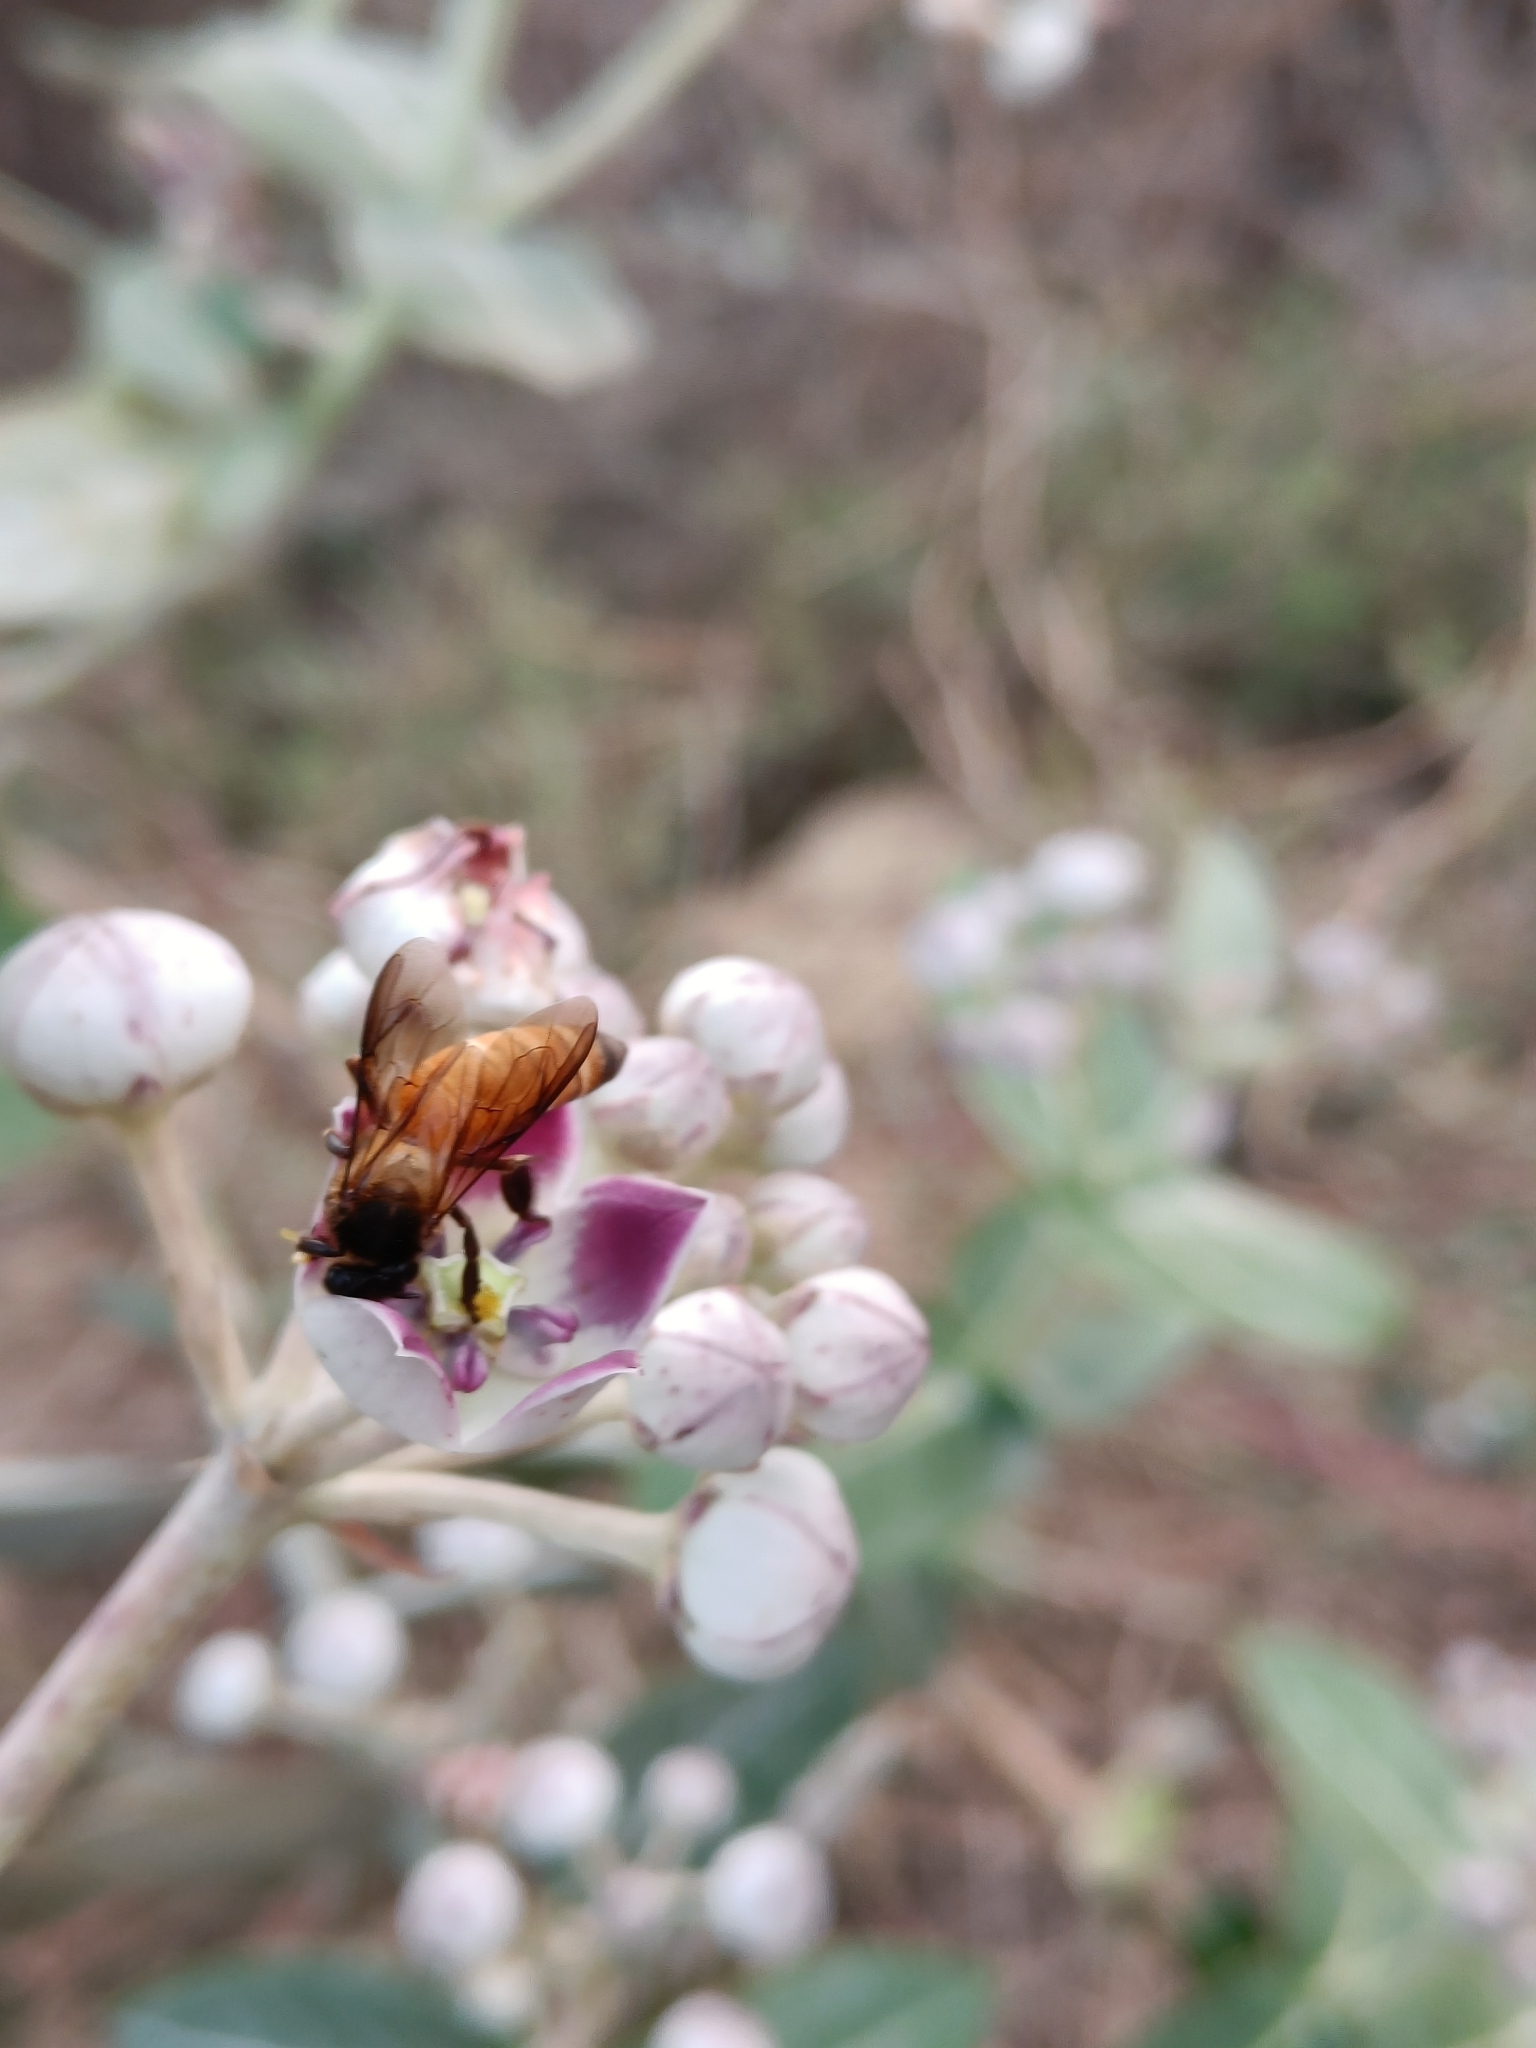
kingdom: Animalia
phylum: Arthropoda
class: Insecta
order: Hymenoptera
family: Apidae
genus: Apis
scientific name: Apis dorsata
